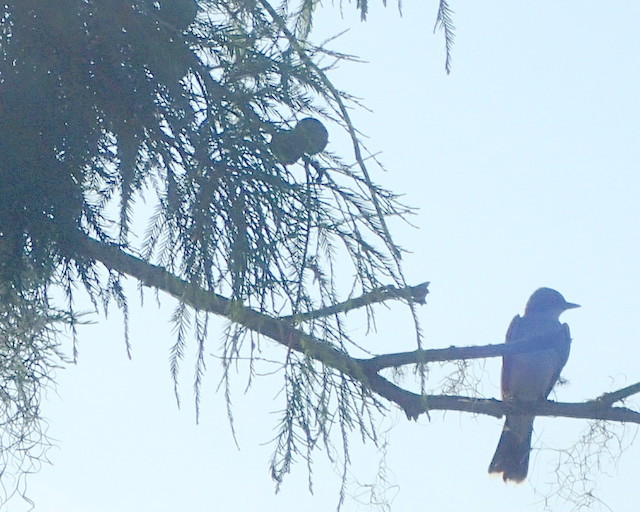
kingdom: Animalia
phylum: Chordata
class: Aves
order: Passeriformes
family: Tyrannidae
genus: Tyrannus
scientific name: Tyrannus tyrannus
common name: Eastern kingbird
